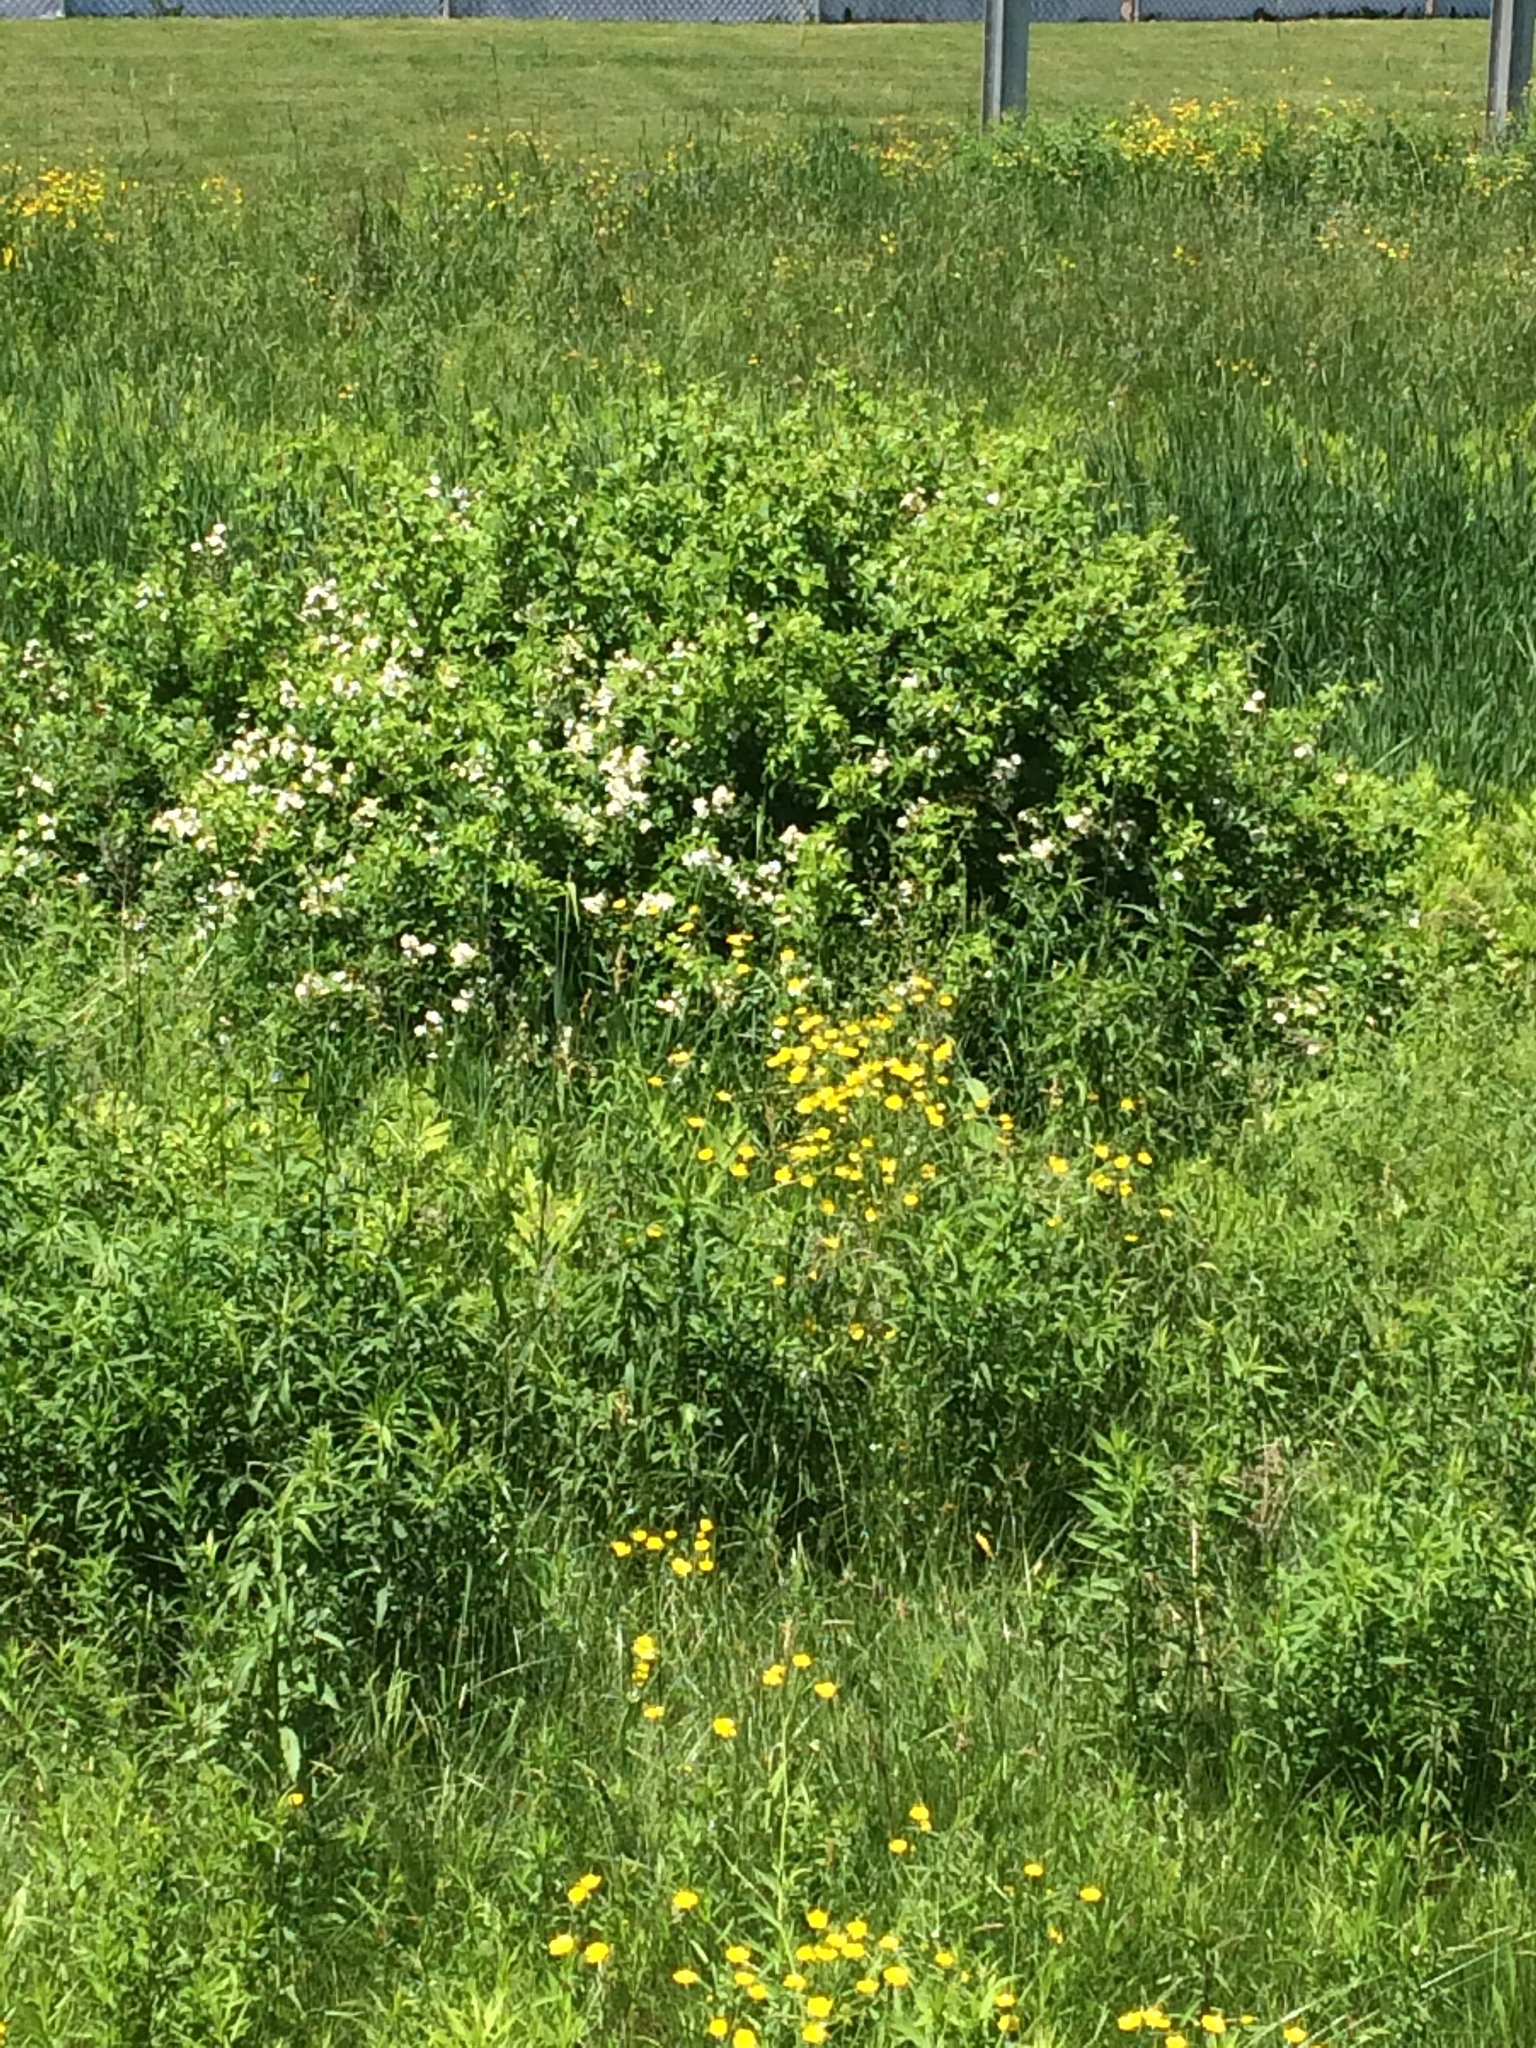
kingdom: Plantae
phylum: Tracheophyta
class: Magnoliopsida
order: Rosales
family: Rosaceae
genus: Rosa
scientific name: Rosa multiflora
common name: Multiflora rose
